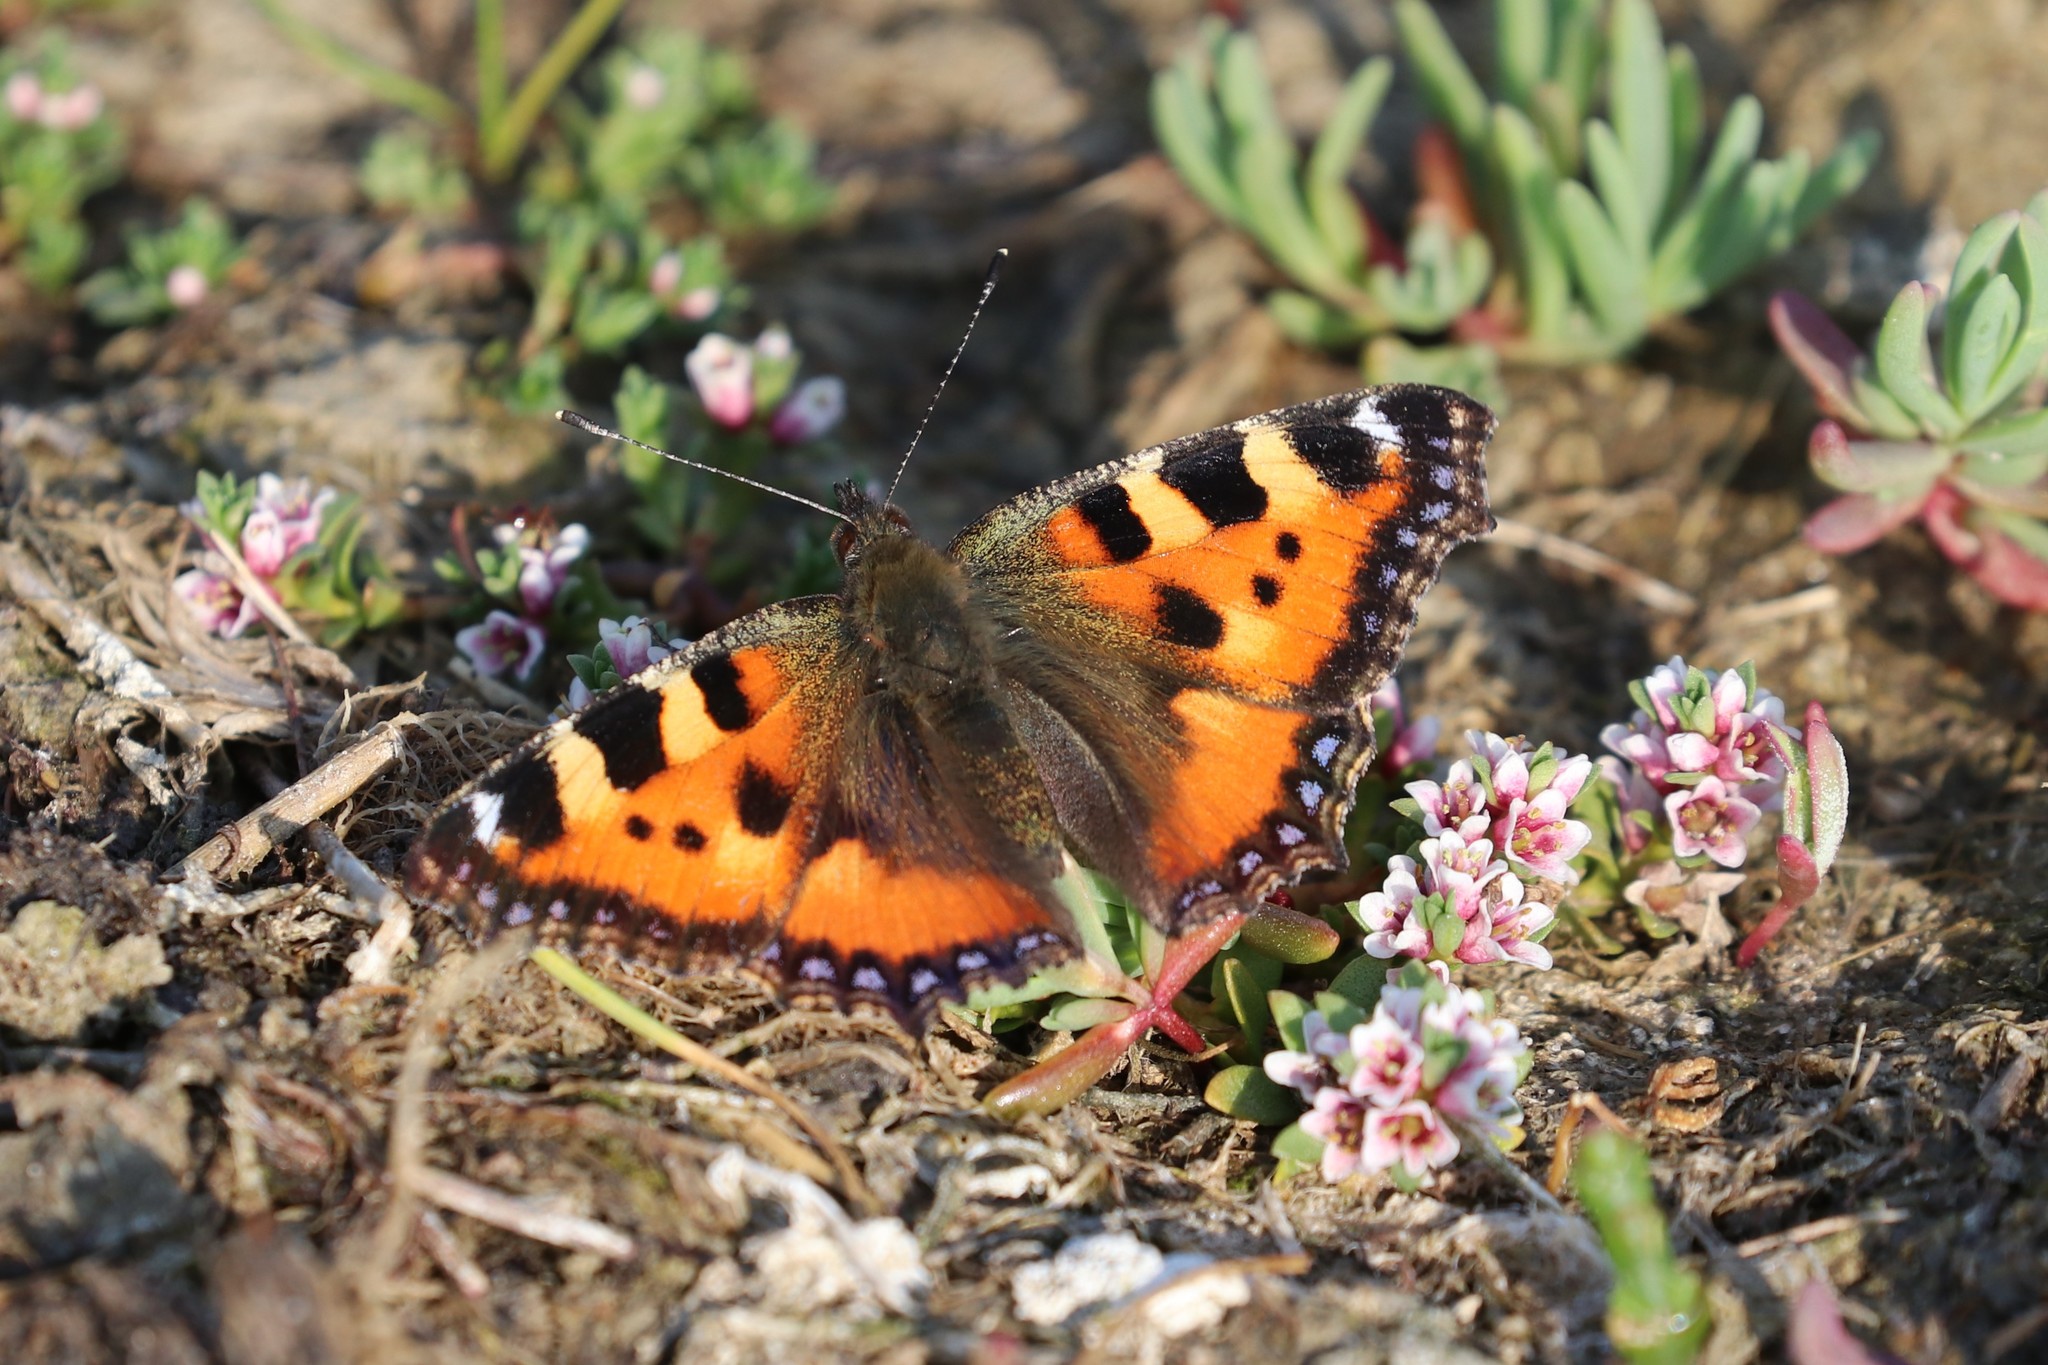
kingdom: Animalia
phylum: Arthropoda
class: Insecta
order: Lepidoptera
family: Nymphalidae
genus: Aglais
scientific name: Aglais urticae
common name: Small tortoiseshell
